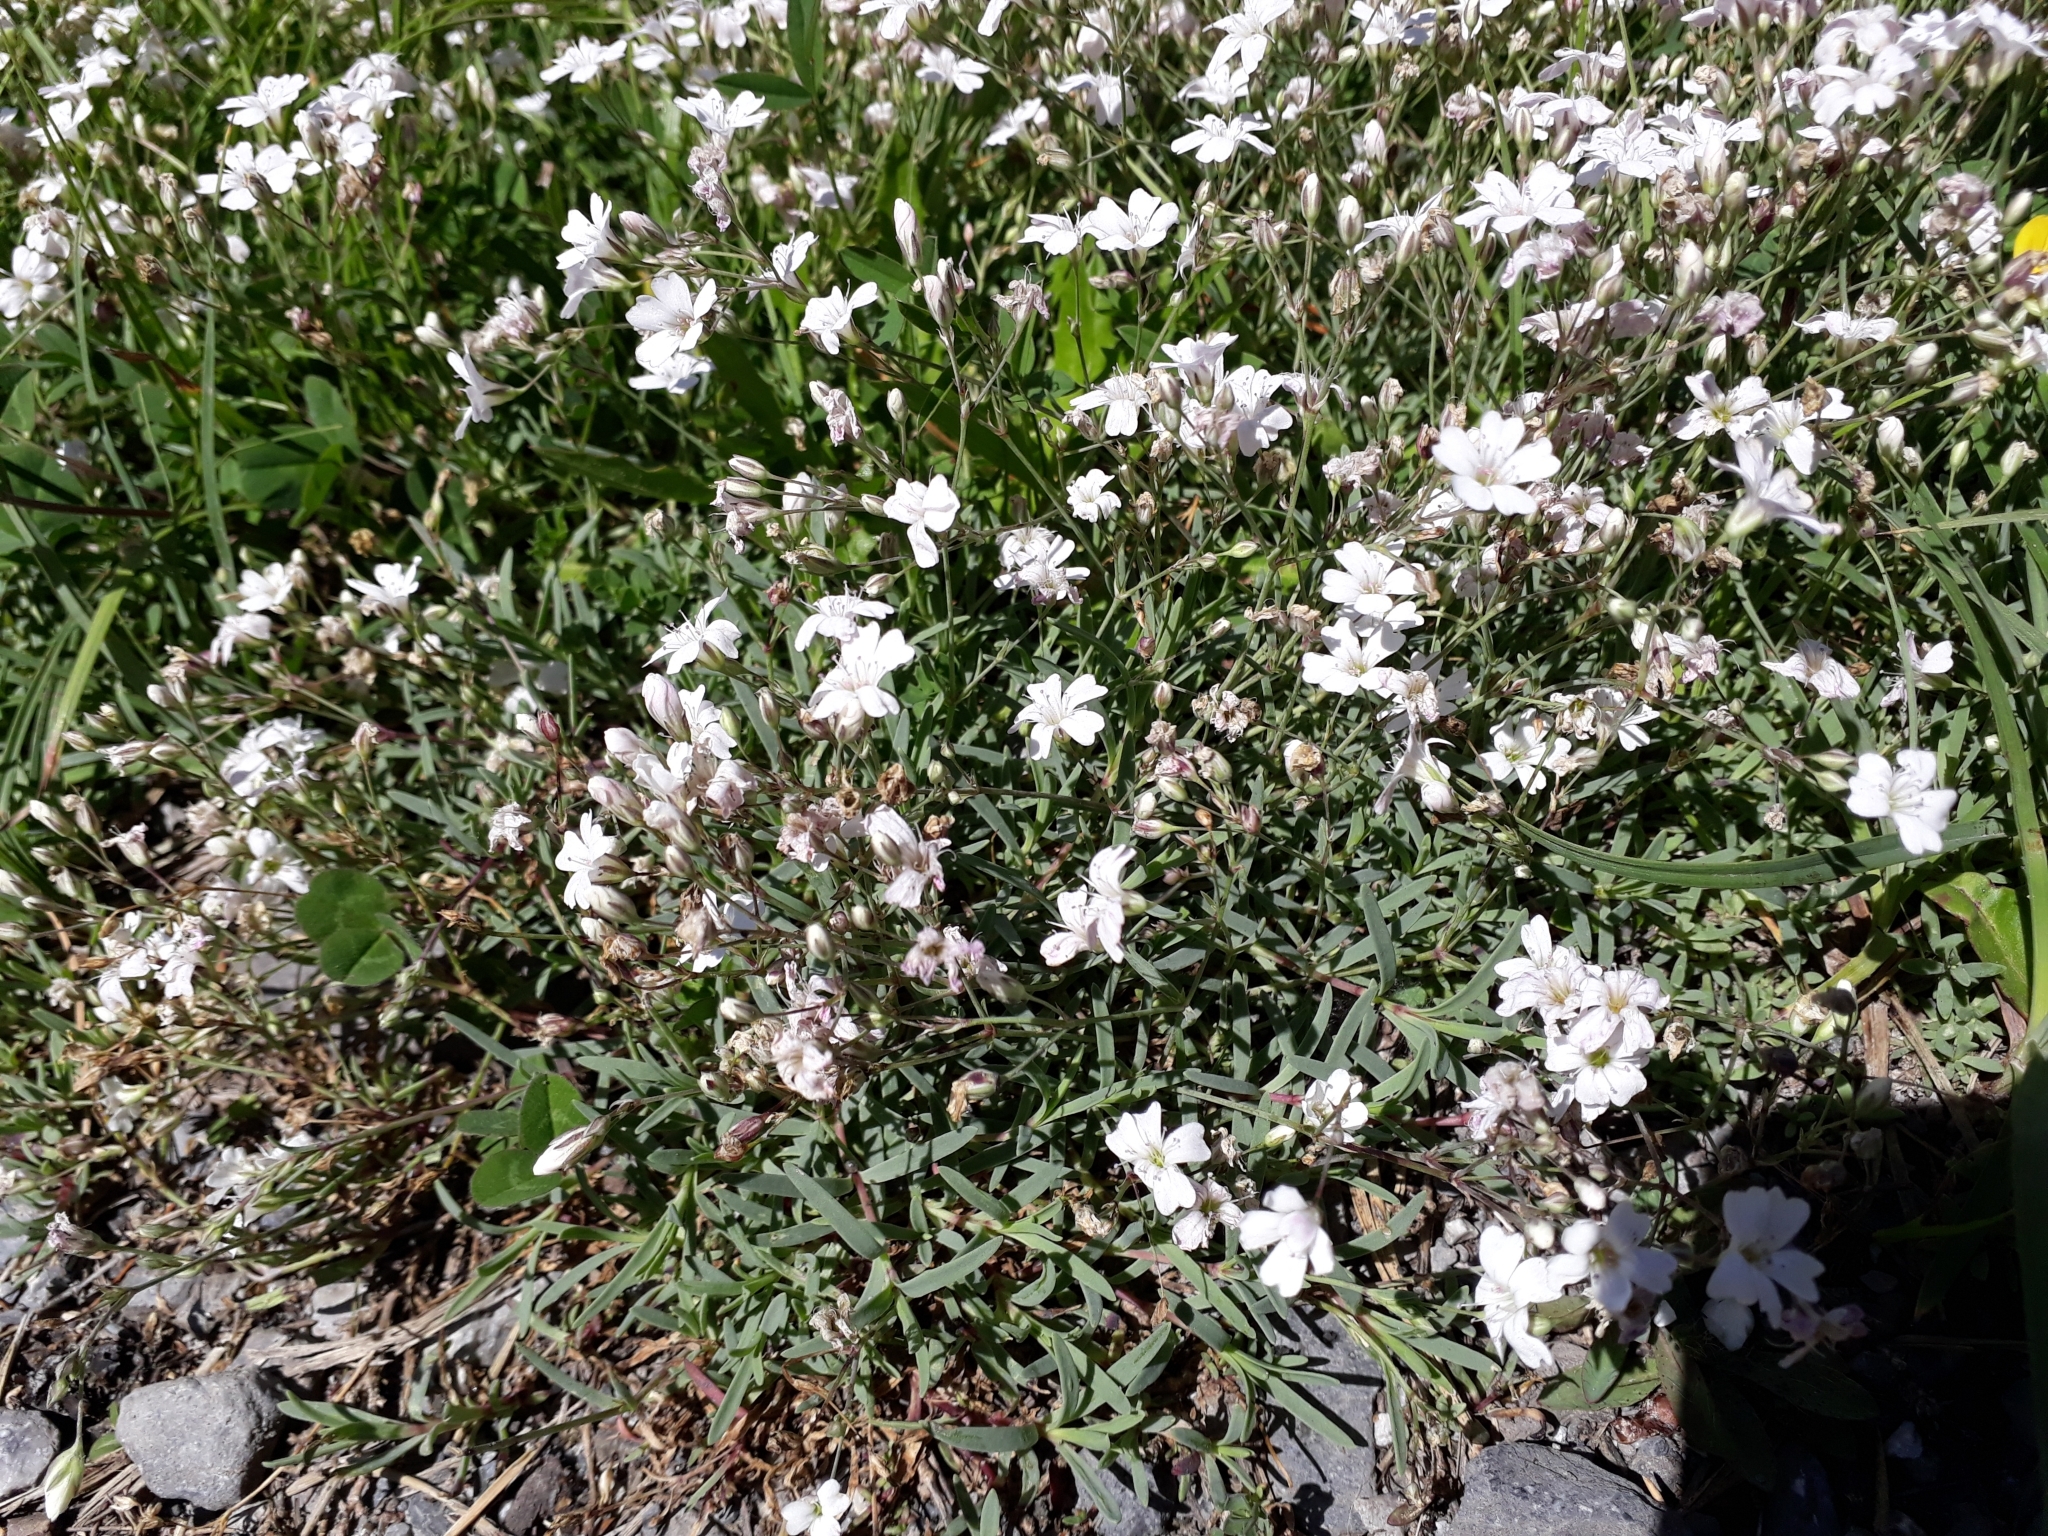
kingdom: Plantae
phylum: Tracheophyta
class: Magnoliopsida
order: Caryophyllales
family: Caryophyllaceae
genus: Gypsophila
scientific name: Gypsophila repens
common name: Creeping baby's-breath
